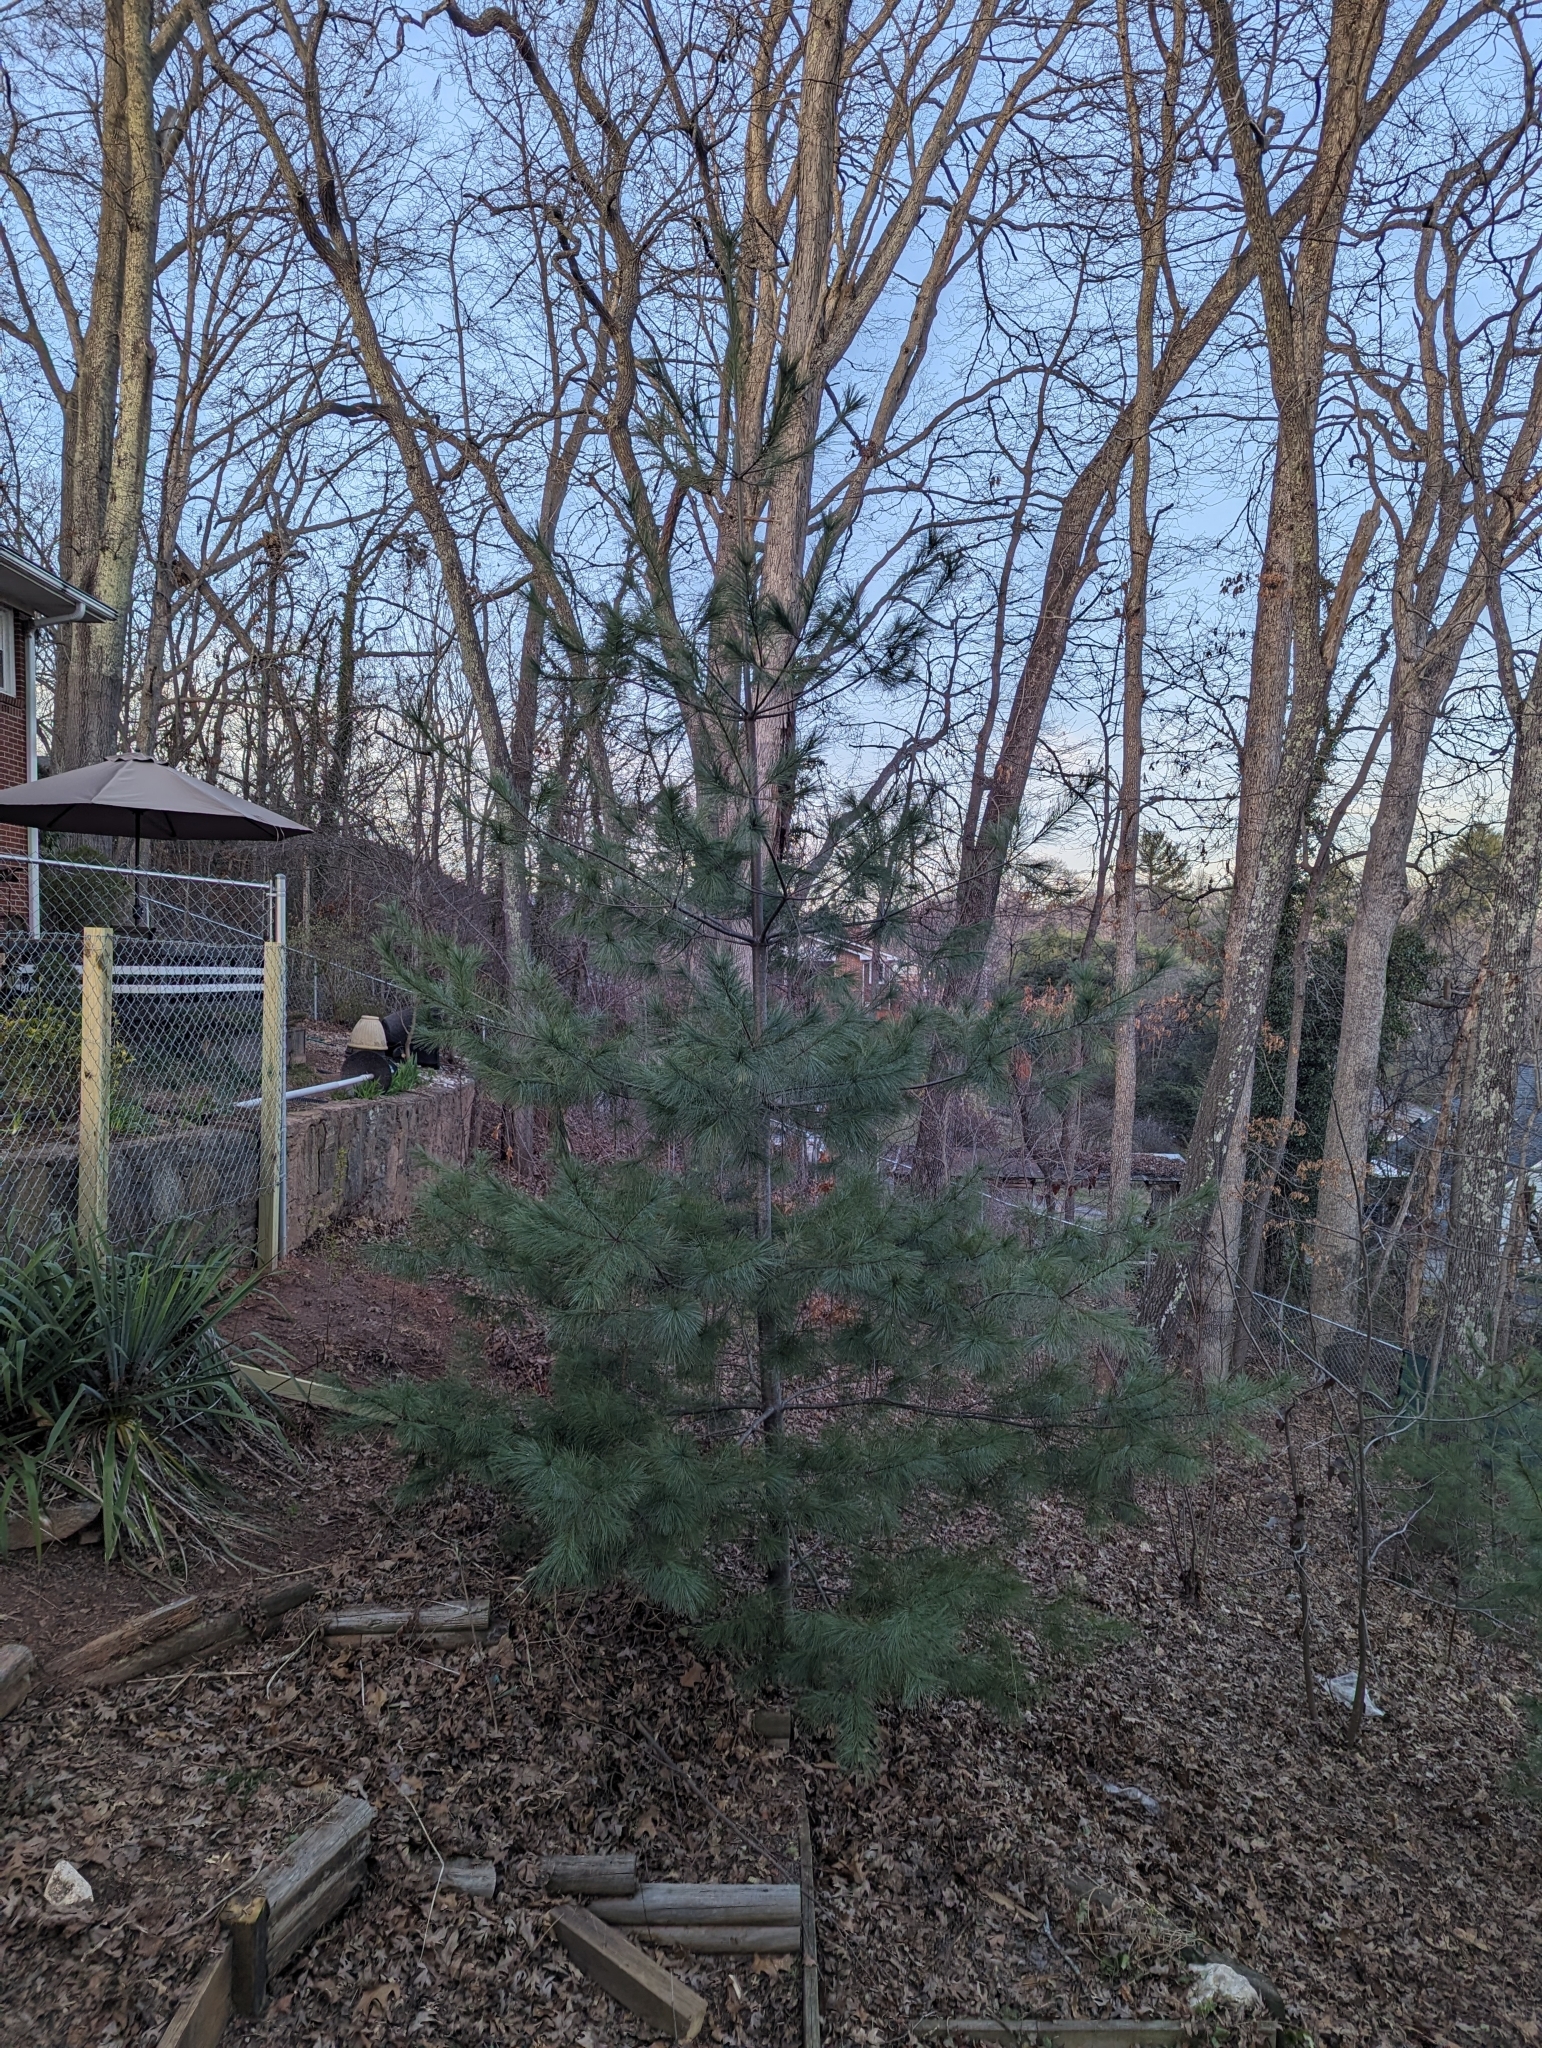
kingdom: Plantae
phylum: Tracheophyta
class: Pinopsida
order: Pinales
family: Pinaceae
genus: Pinus
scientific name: Pinus strobus
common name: Weymouth pine
